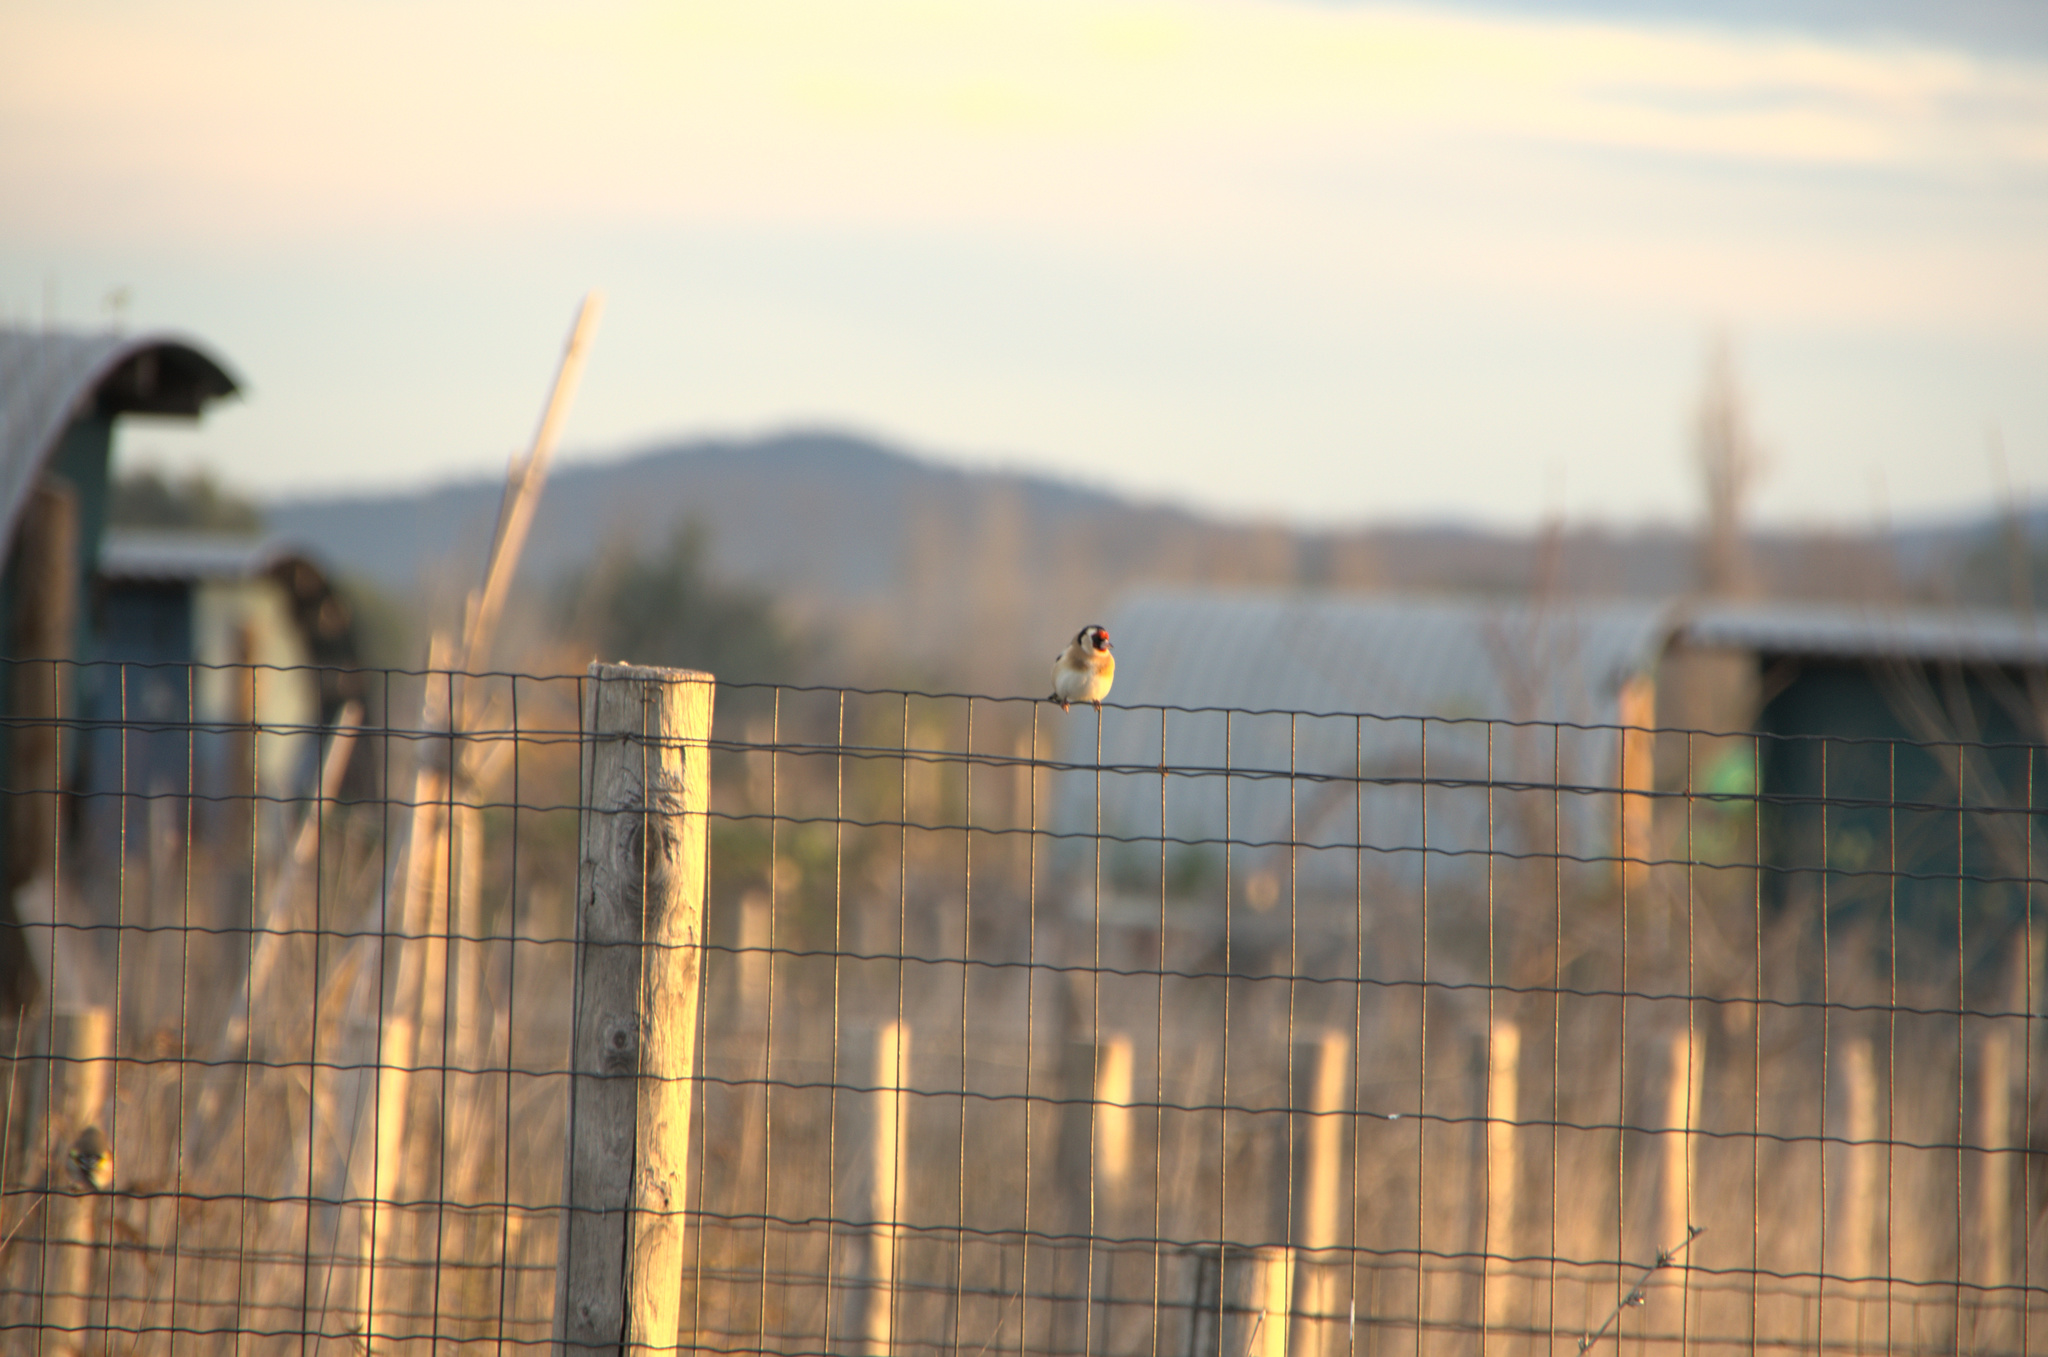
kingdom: Animalia
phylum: Chordata
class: Aves
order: Passeriformes
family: Fringillidae
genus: Carduelis
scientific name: Carduelis carduelis
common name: European goldfinch
